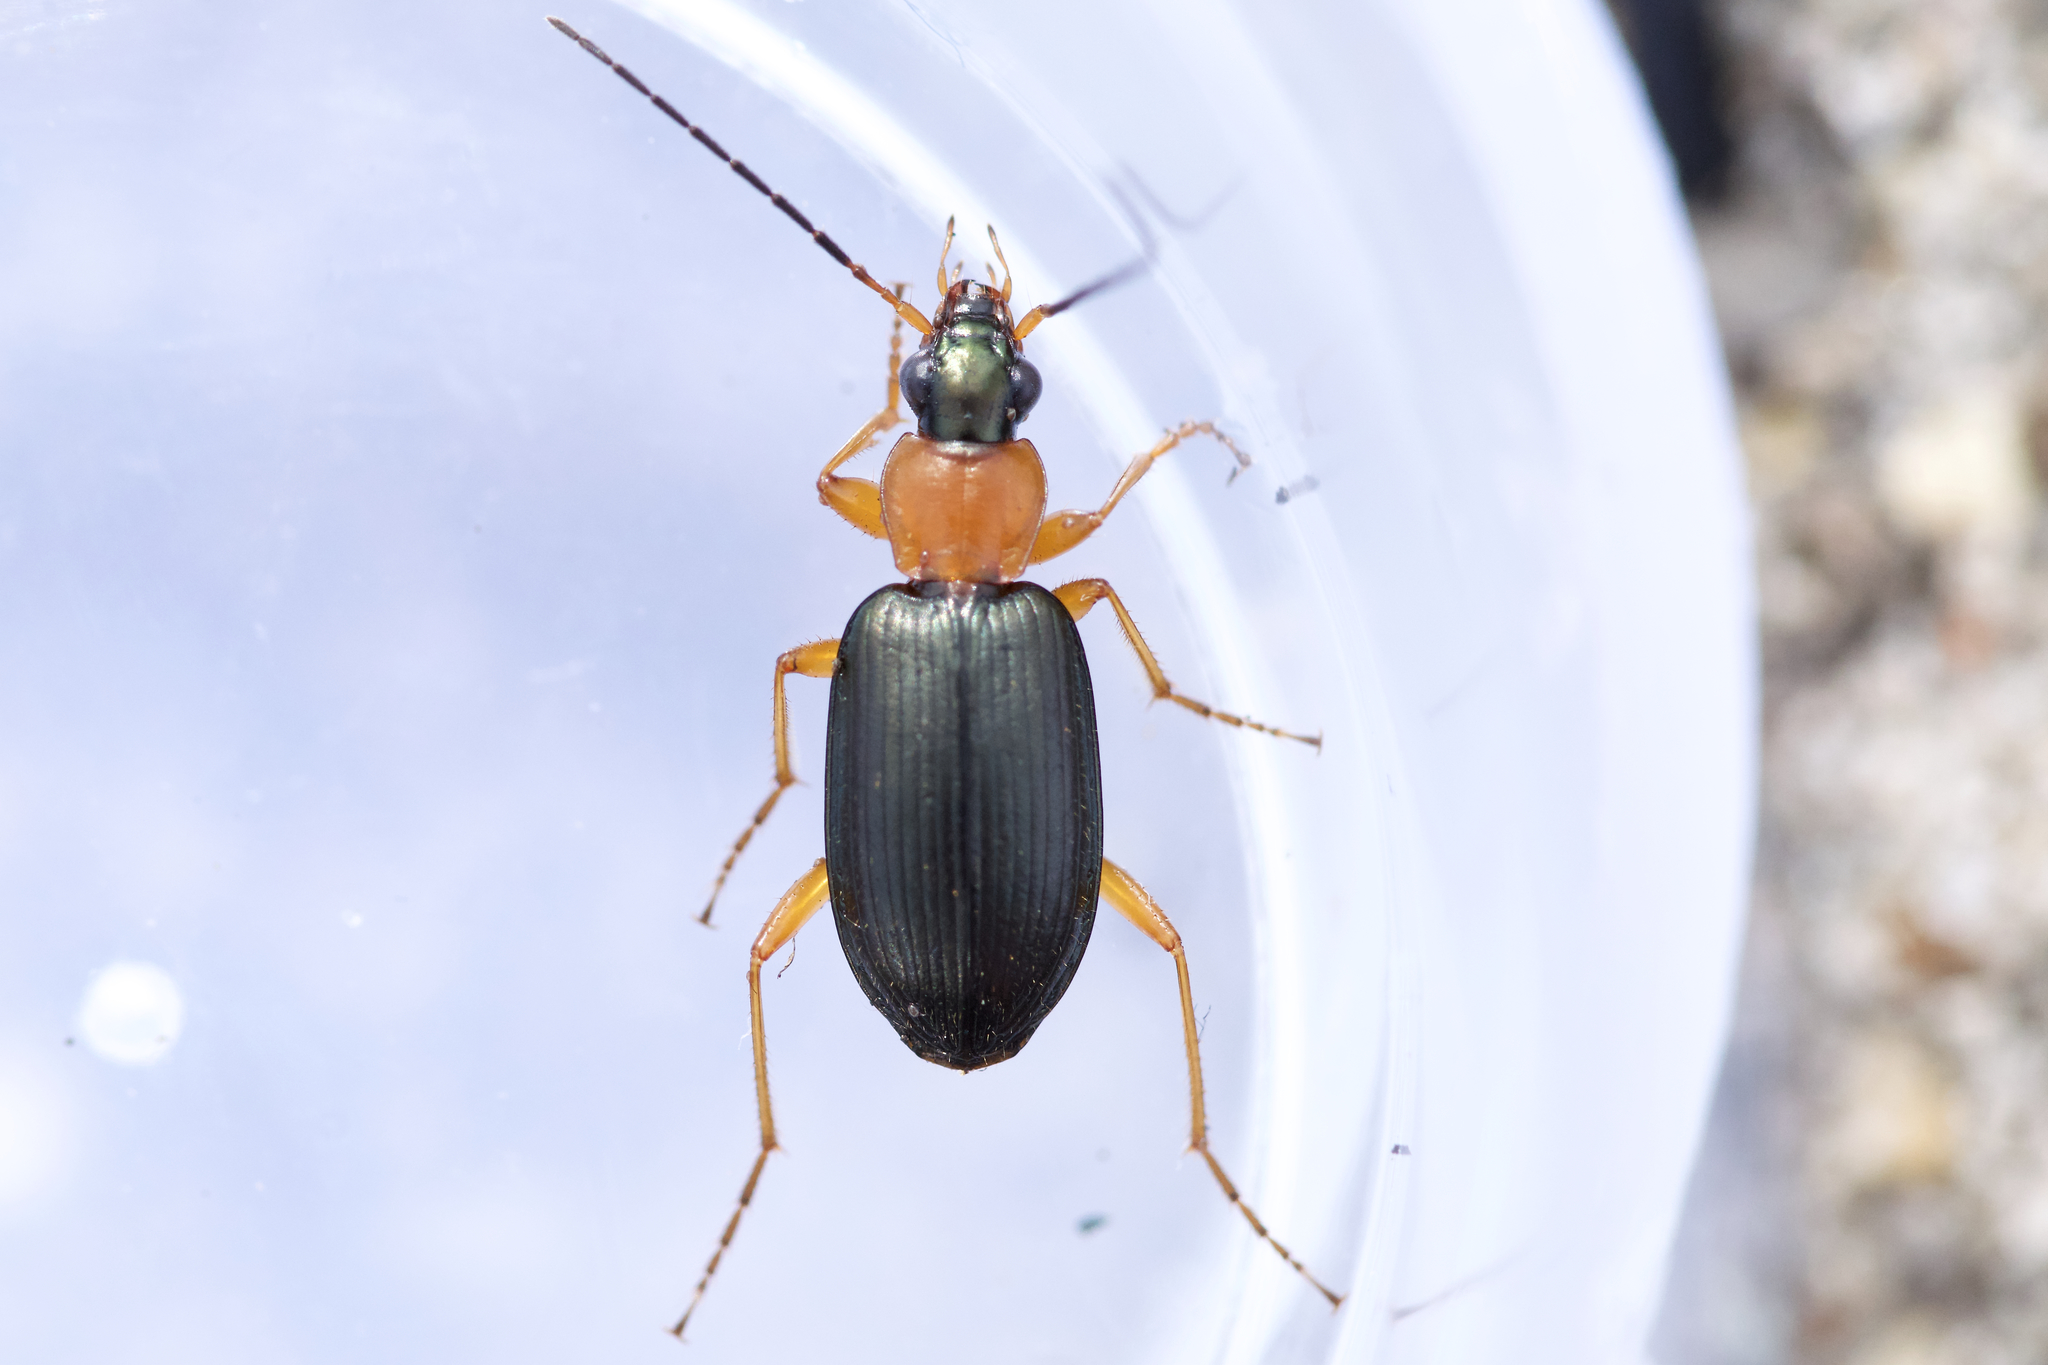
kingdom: Animalia
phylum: Arthropoda
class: Insecta
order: Coleoptera
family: Carabidae
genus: Agonum
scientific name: Agonum decorum
